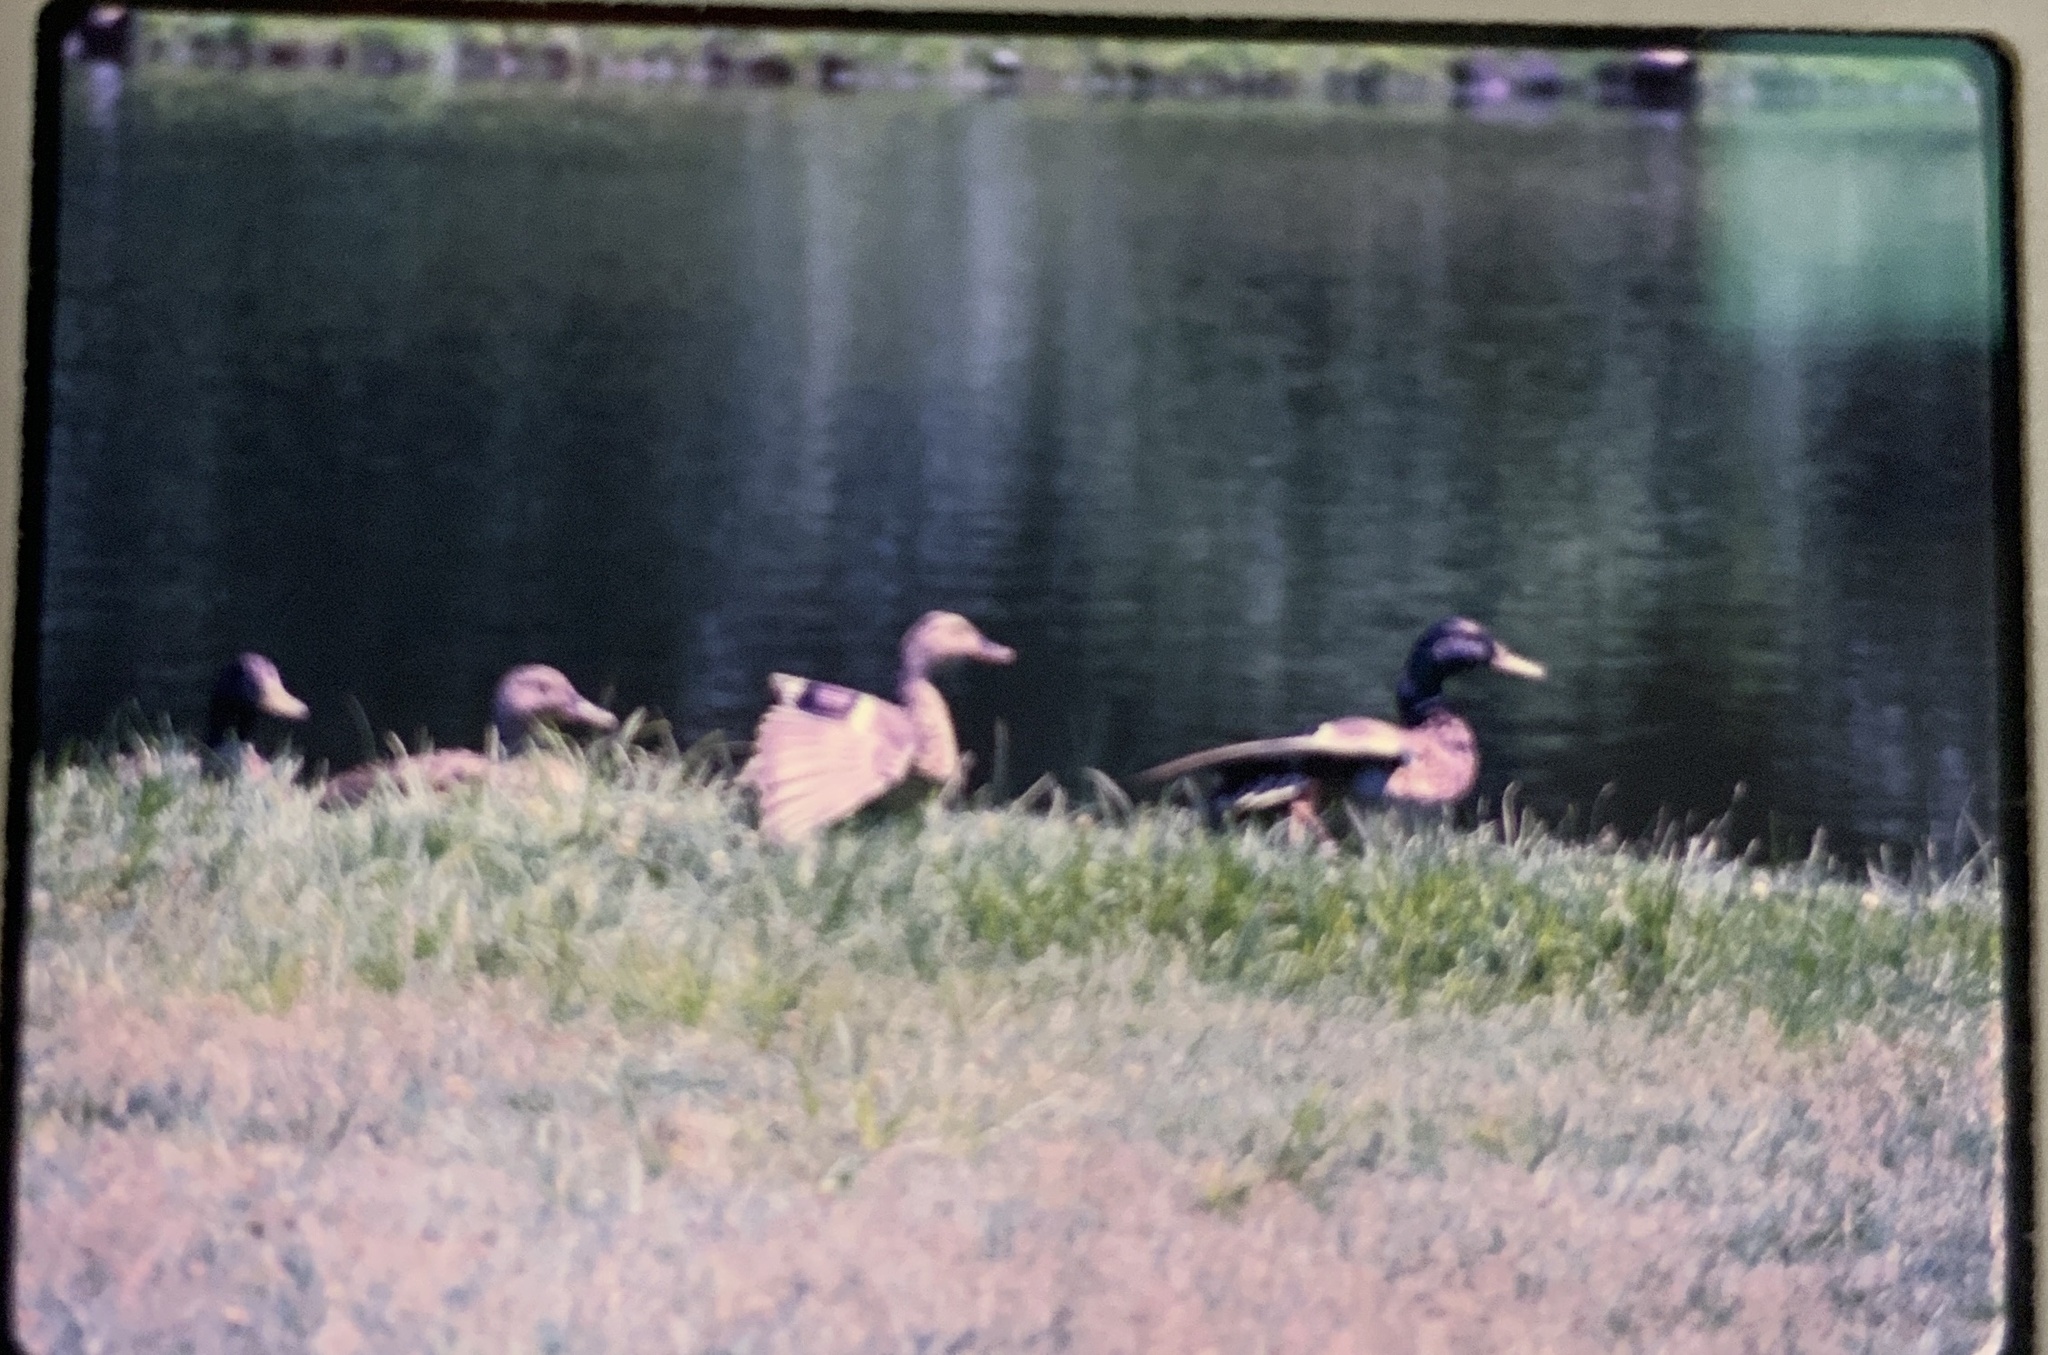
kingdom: Animalia
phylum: Chordata
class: Aves
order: Anseriformes
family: Anatidae
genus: Anas
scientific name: Anas platyrhynchos
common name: Mallard
